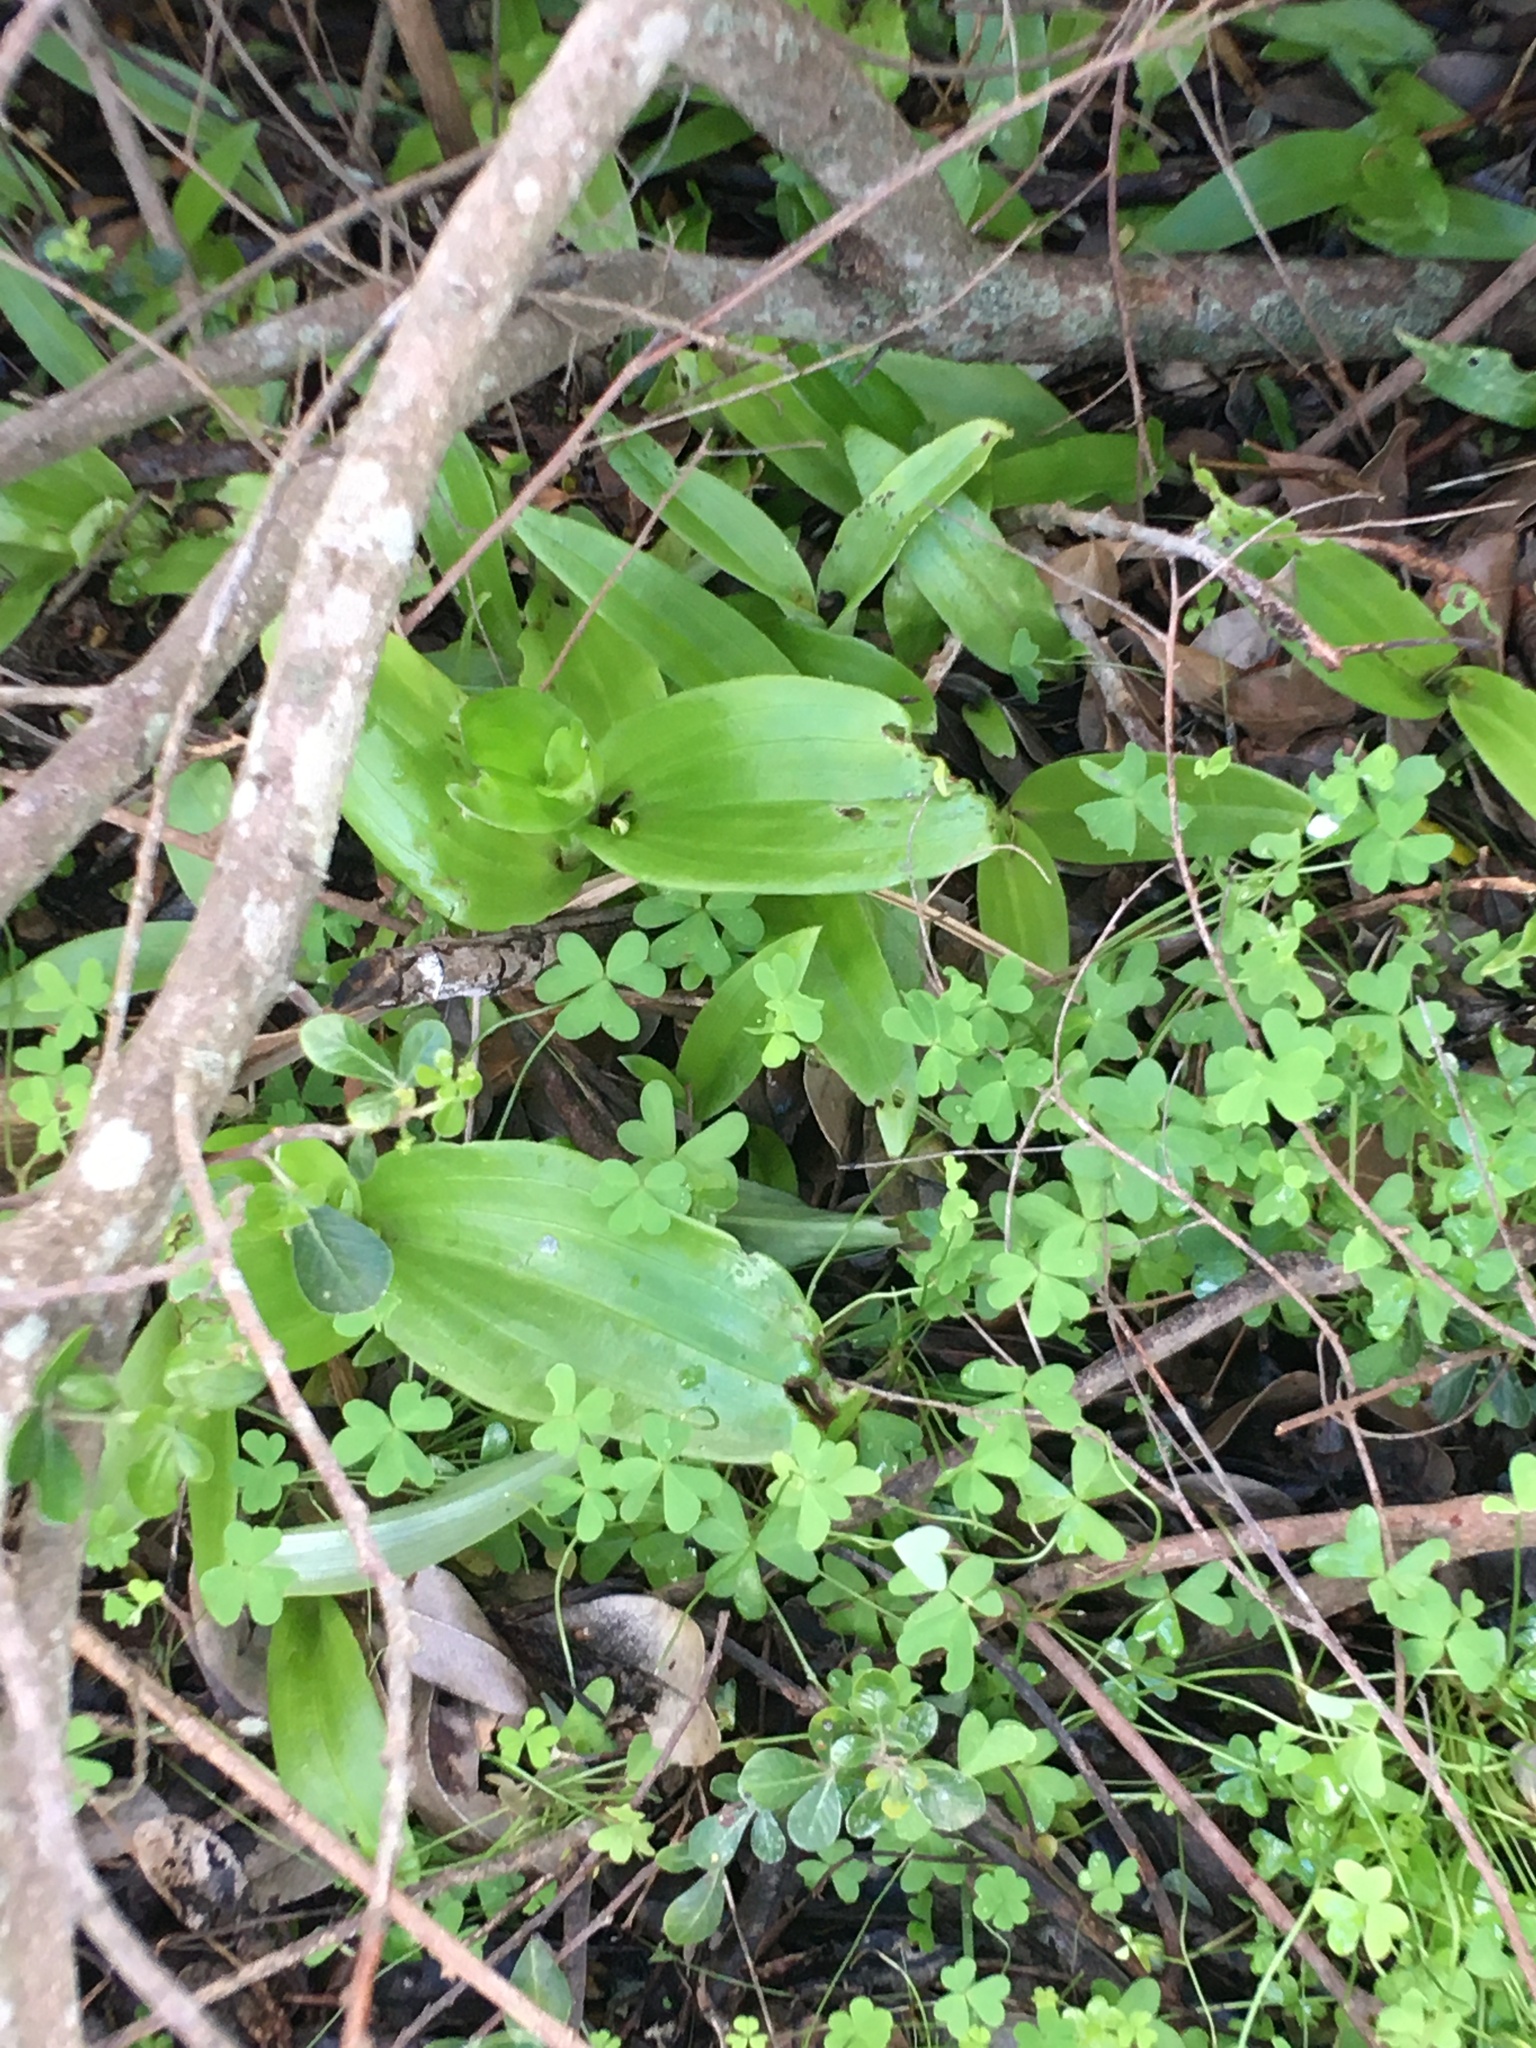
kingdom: Plantae
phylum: Tracheophyta
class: Liliopsida
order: Asparagales
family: Orchidaceae
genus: Satyrium
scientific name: Satyrium odorum
